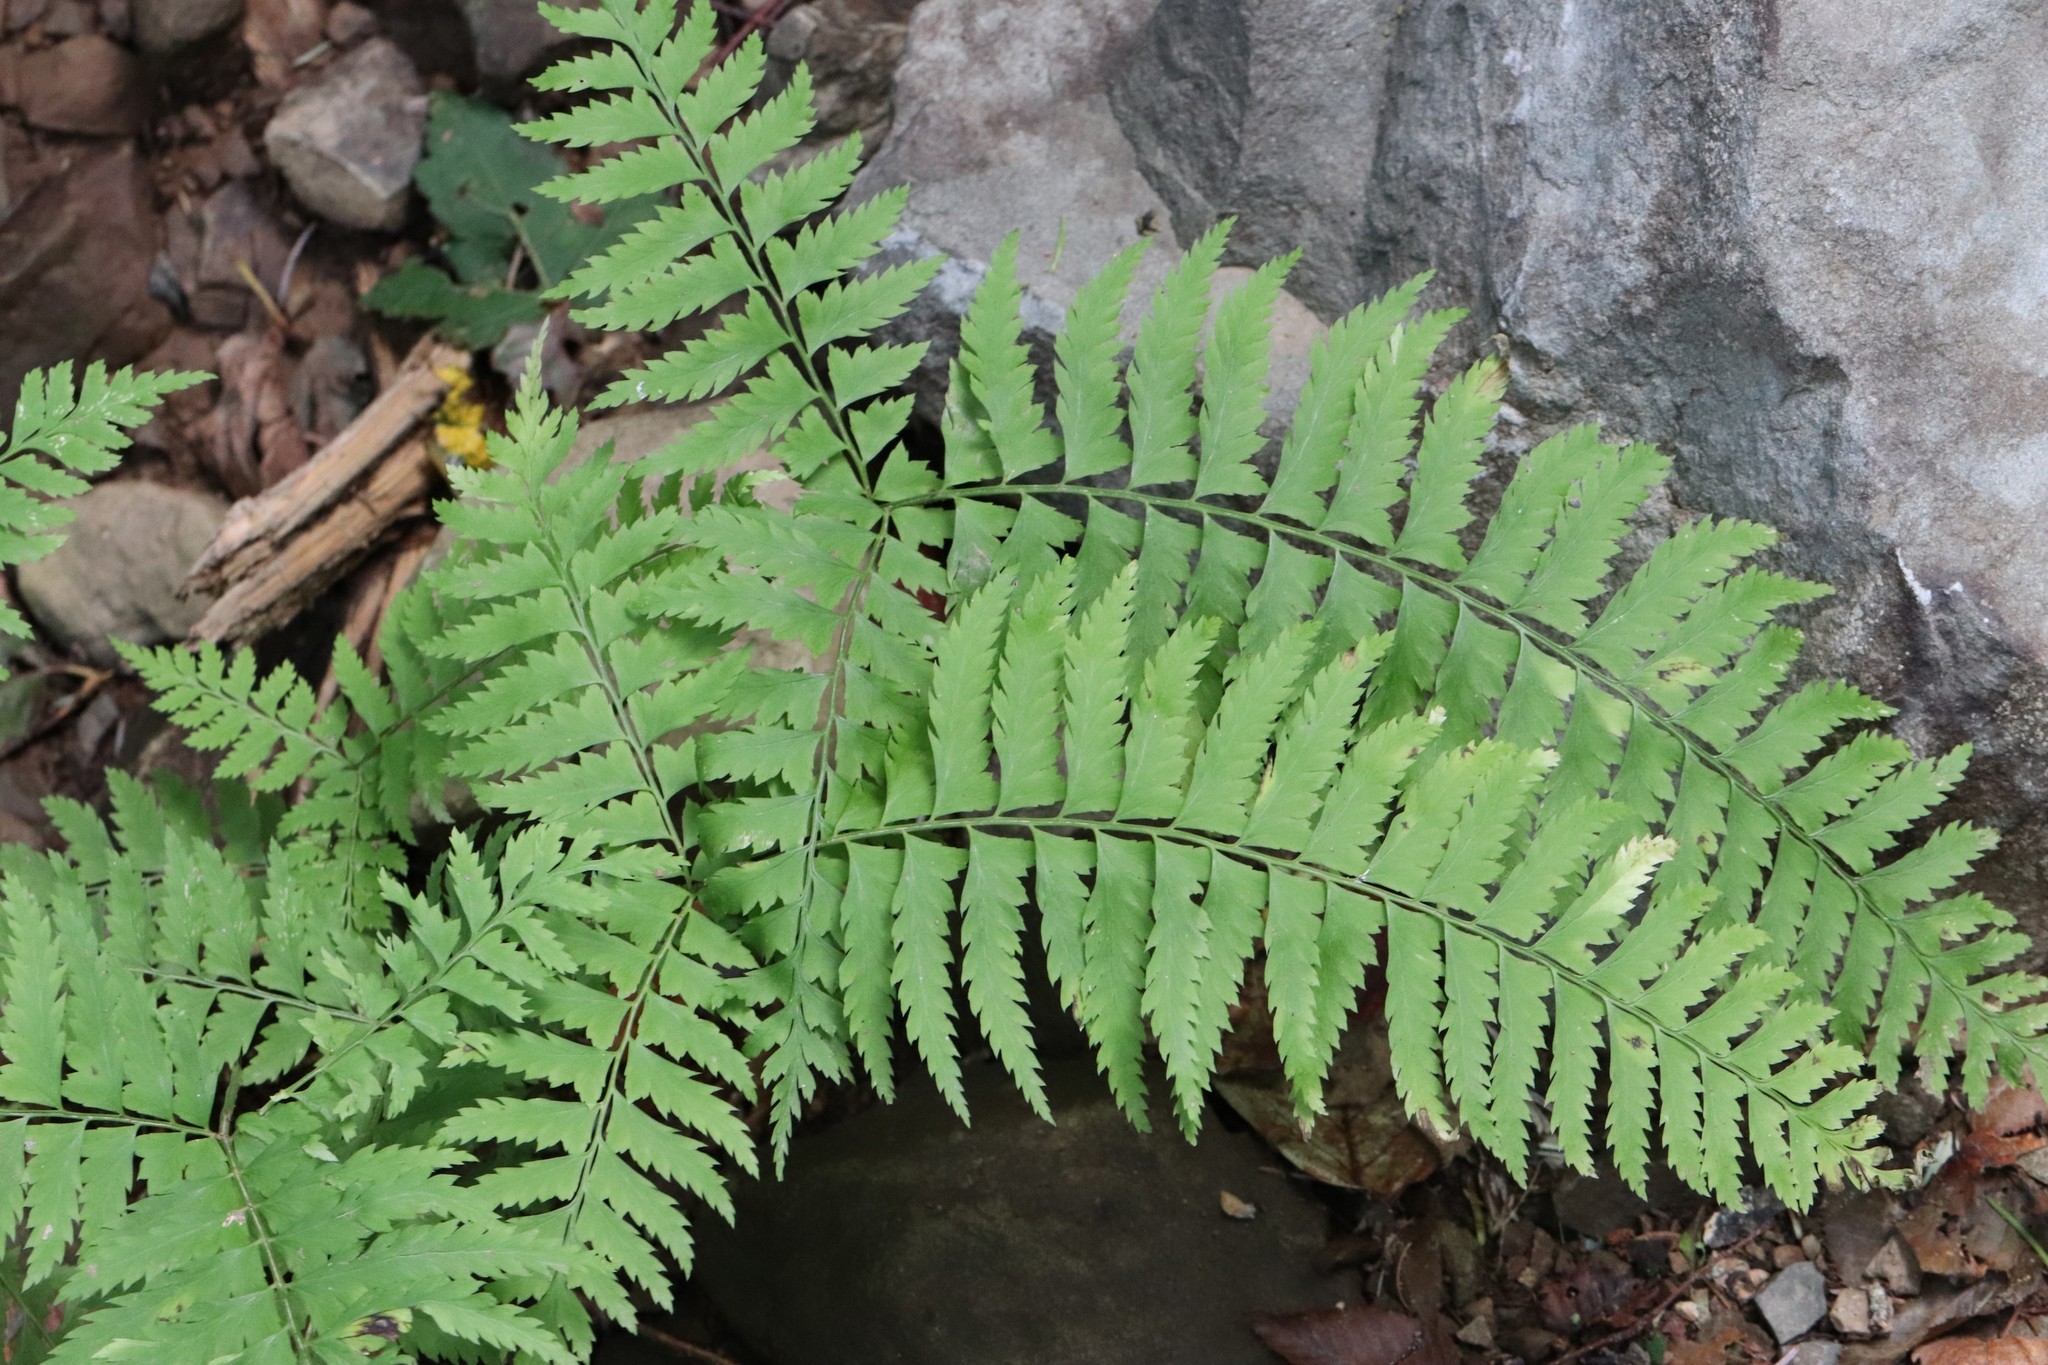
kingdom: Plantae
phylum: Tracheophyta
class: Polypodiopsida
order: Polypodiales
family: Dryopteridaceae
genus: Polystichum
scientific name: Polystichum tripteron
